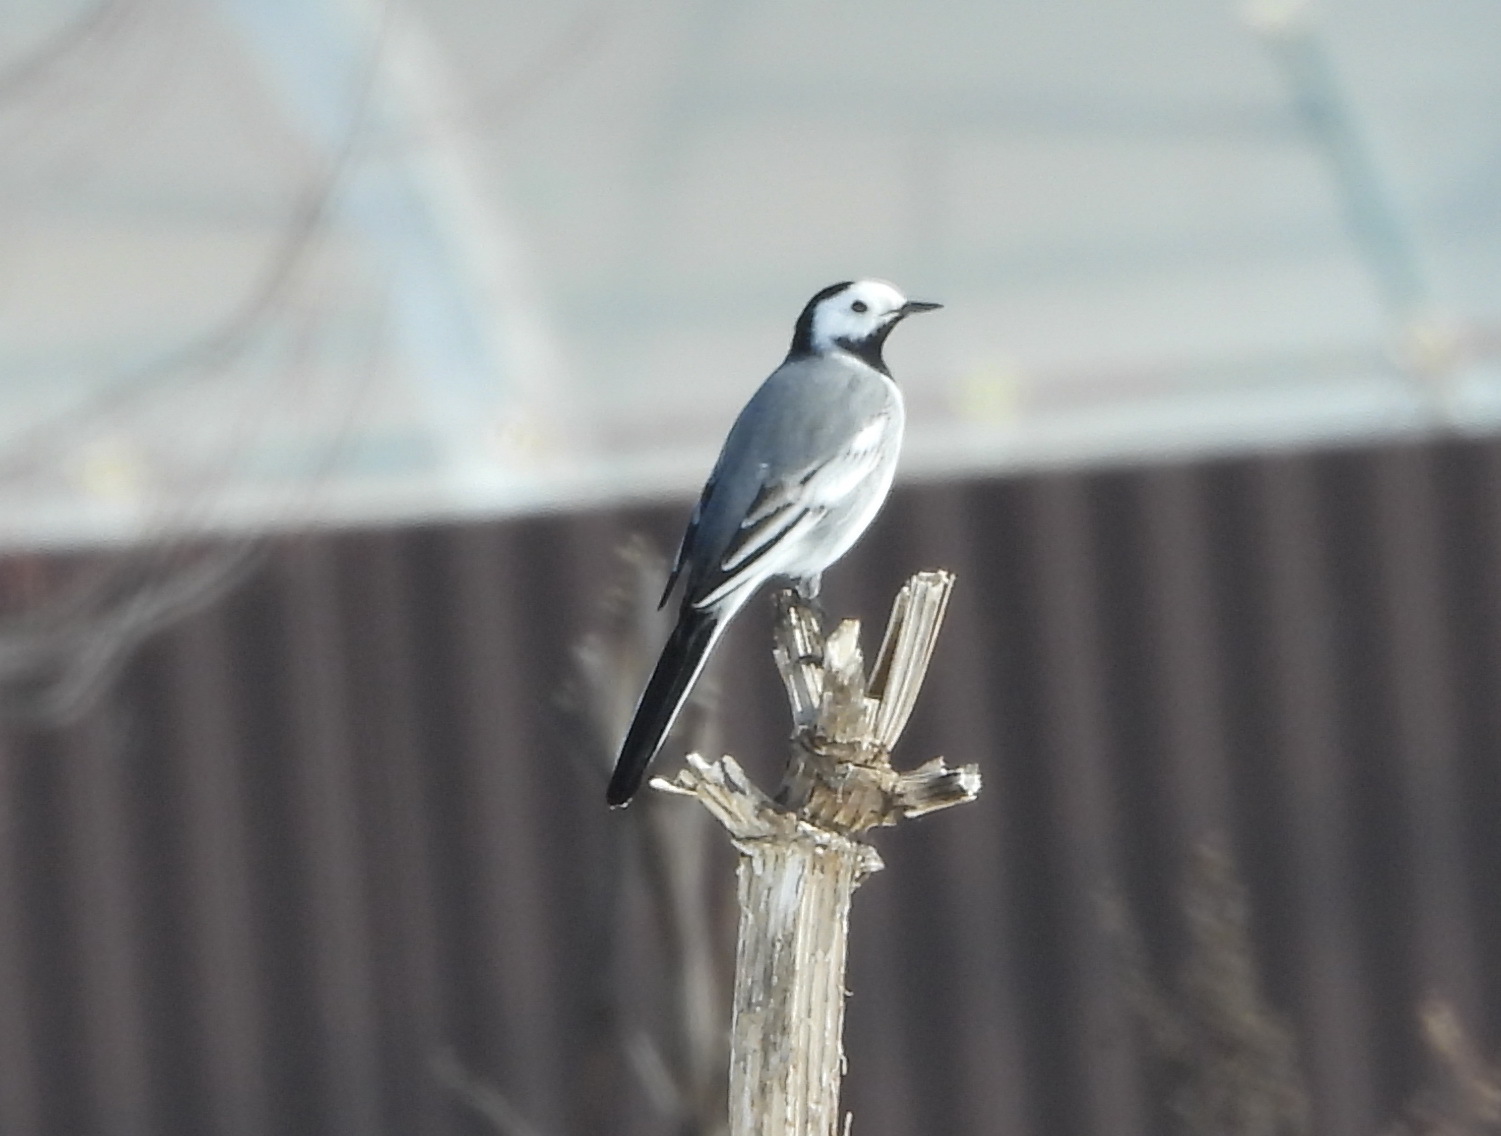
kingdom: Animalia
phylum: Chordata
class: Aves
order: Passeriformes
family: Motacillidae
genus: Motacilla
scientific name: Motacilla alba
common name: White wagtail
